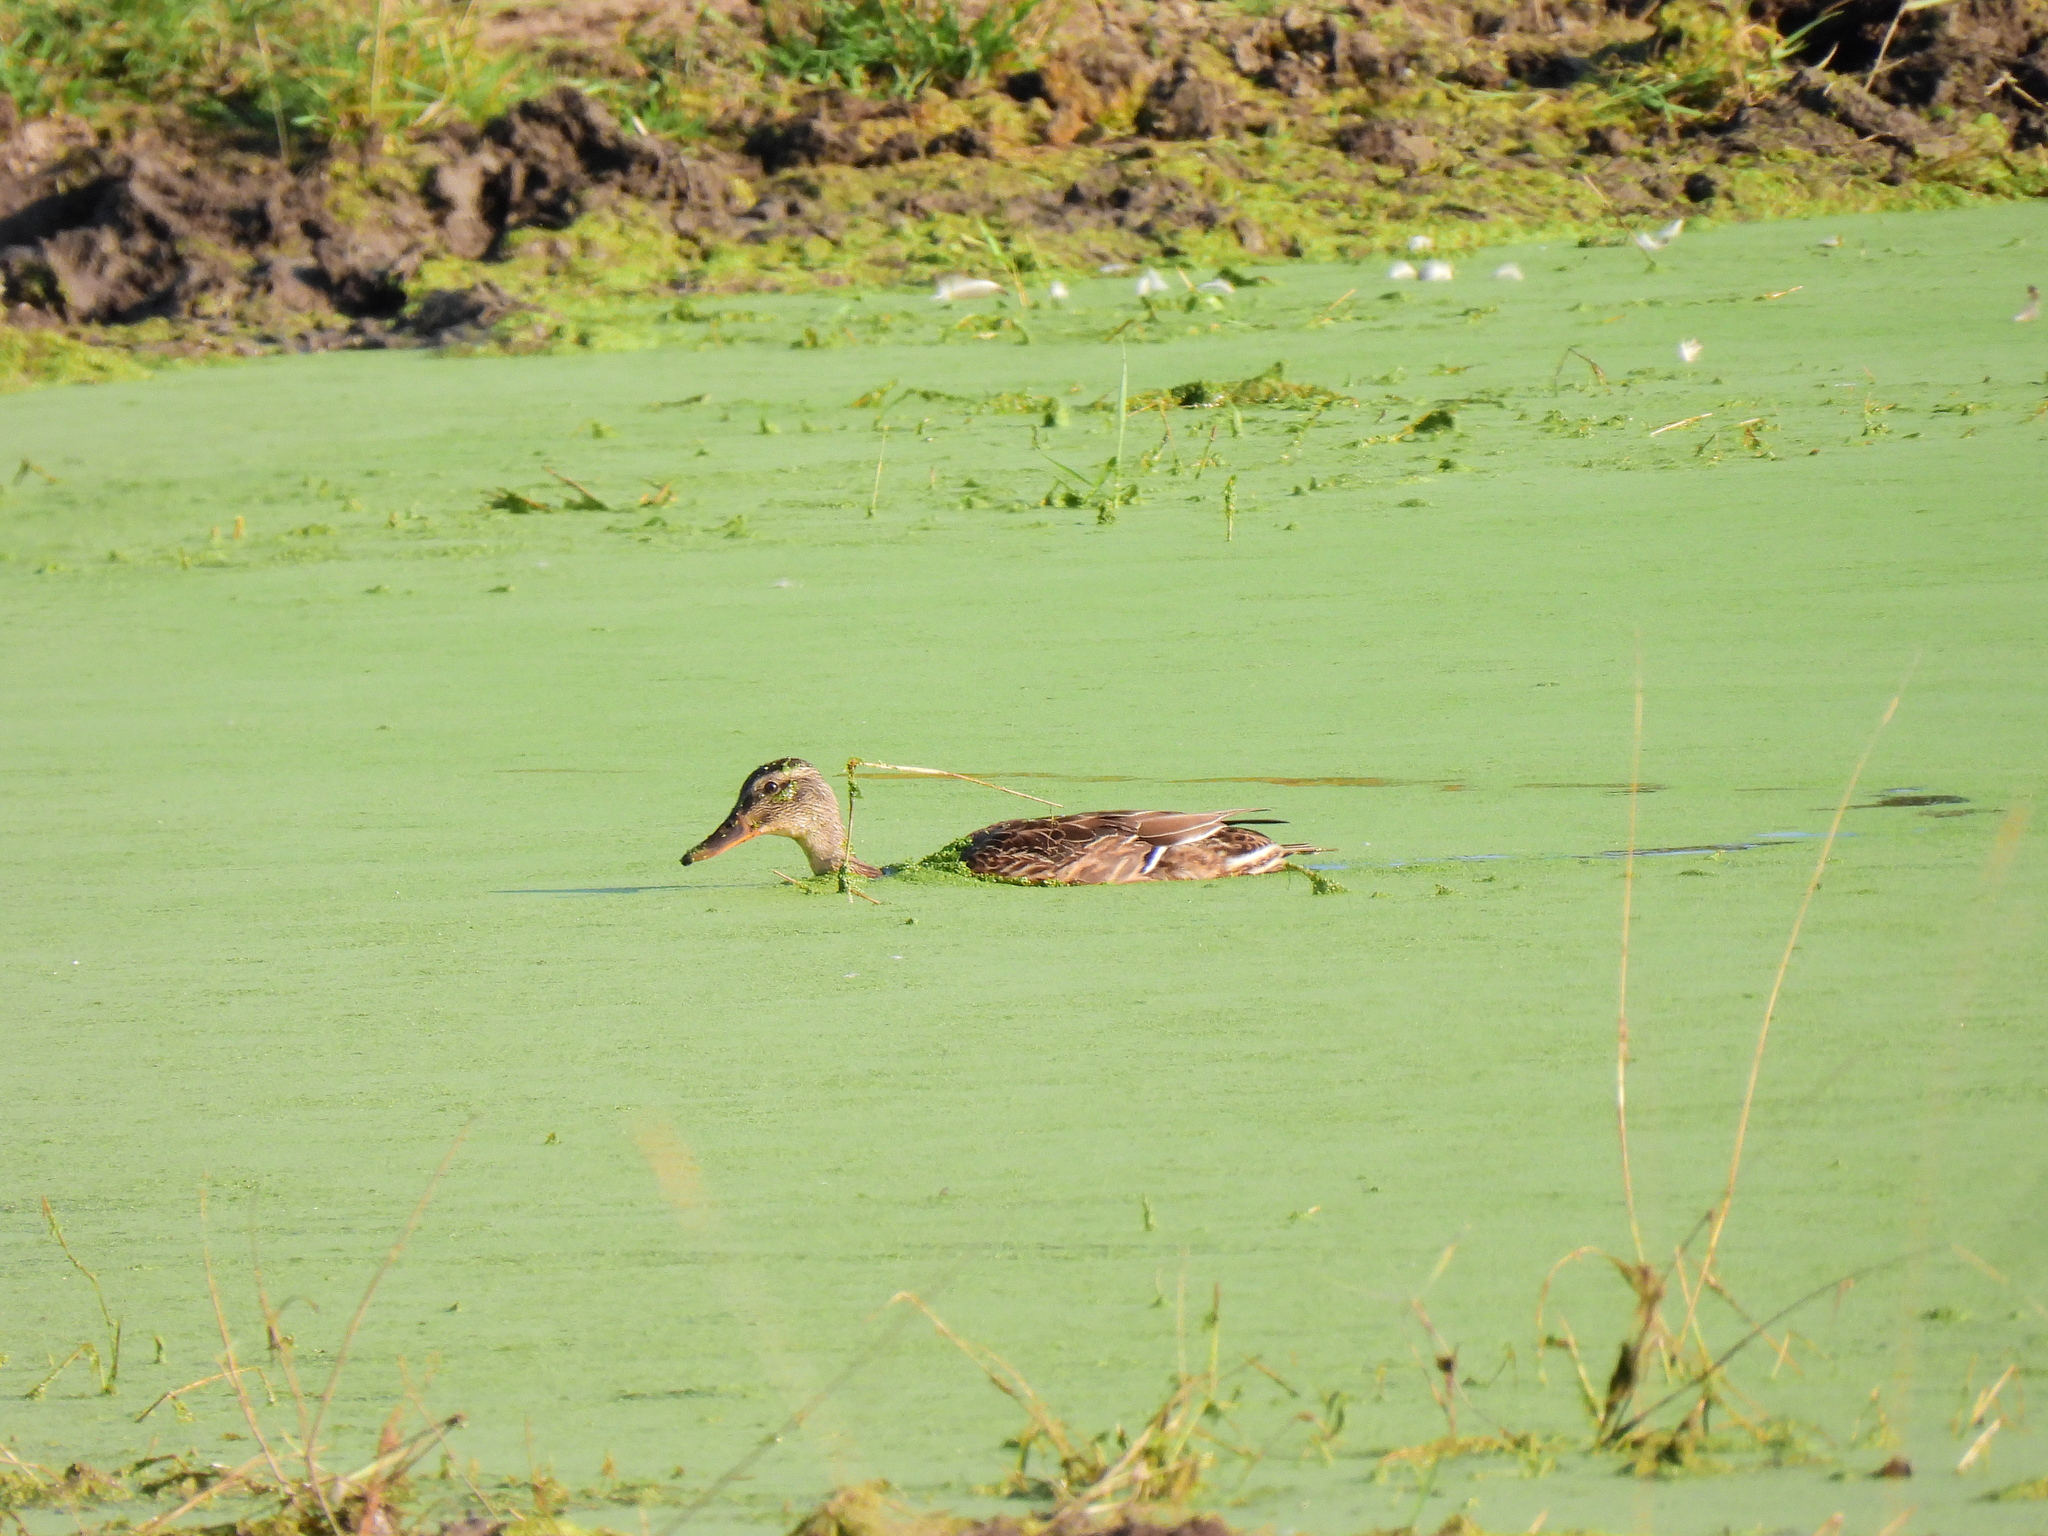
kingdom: Animalia
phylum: Chordata
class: Aves
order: Anseriformes
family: Anatidae
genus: Anas
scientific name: Anas platyrhynchos
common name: Mallard
